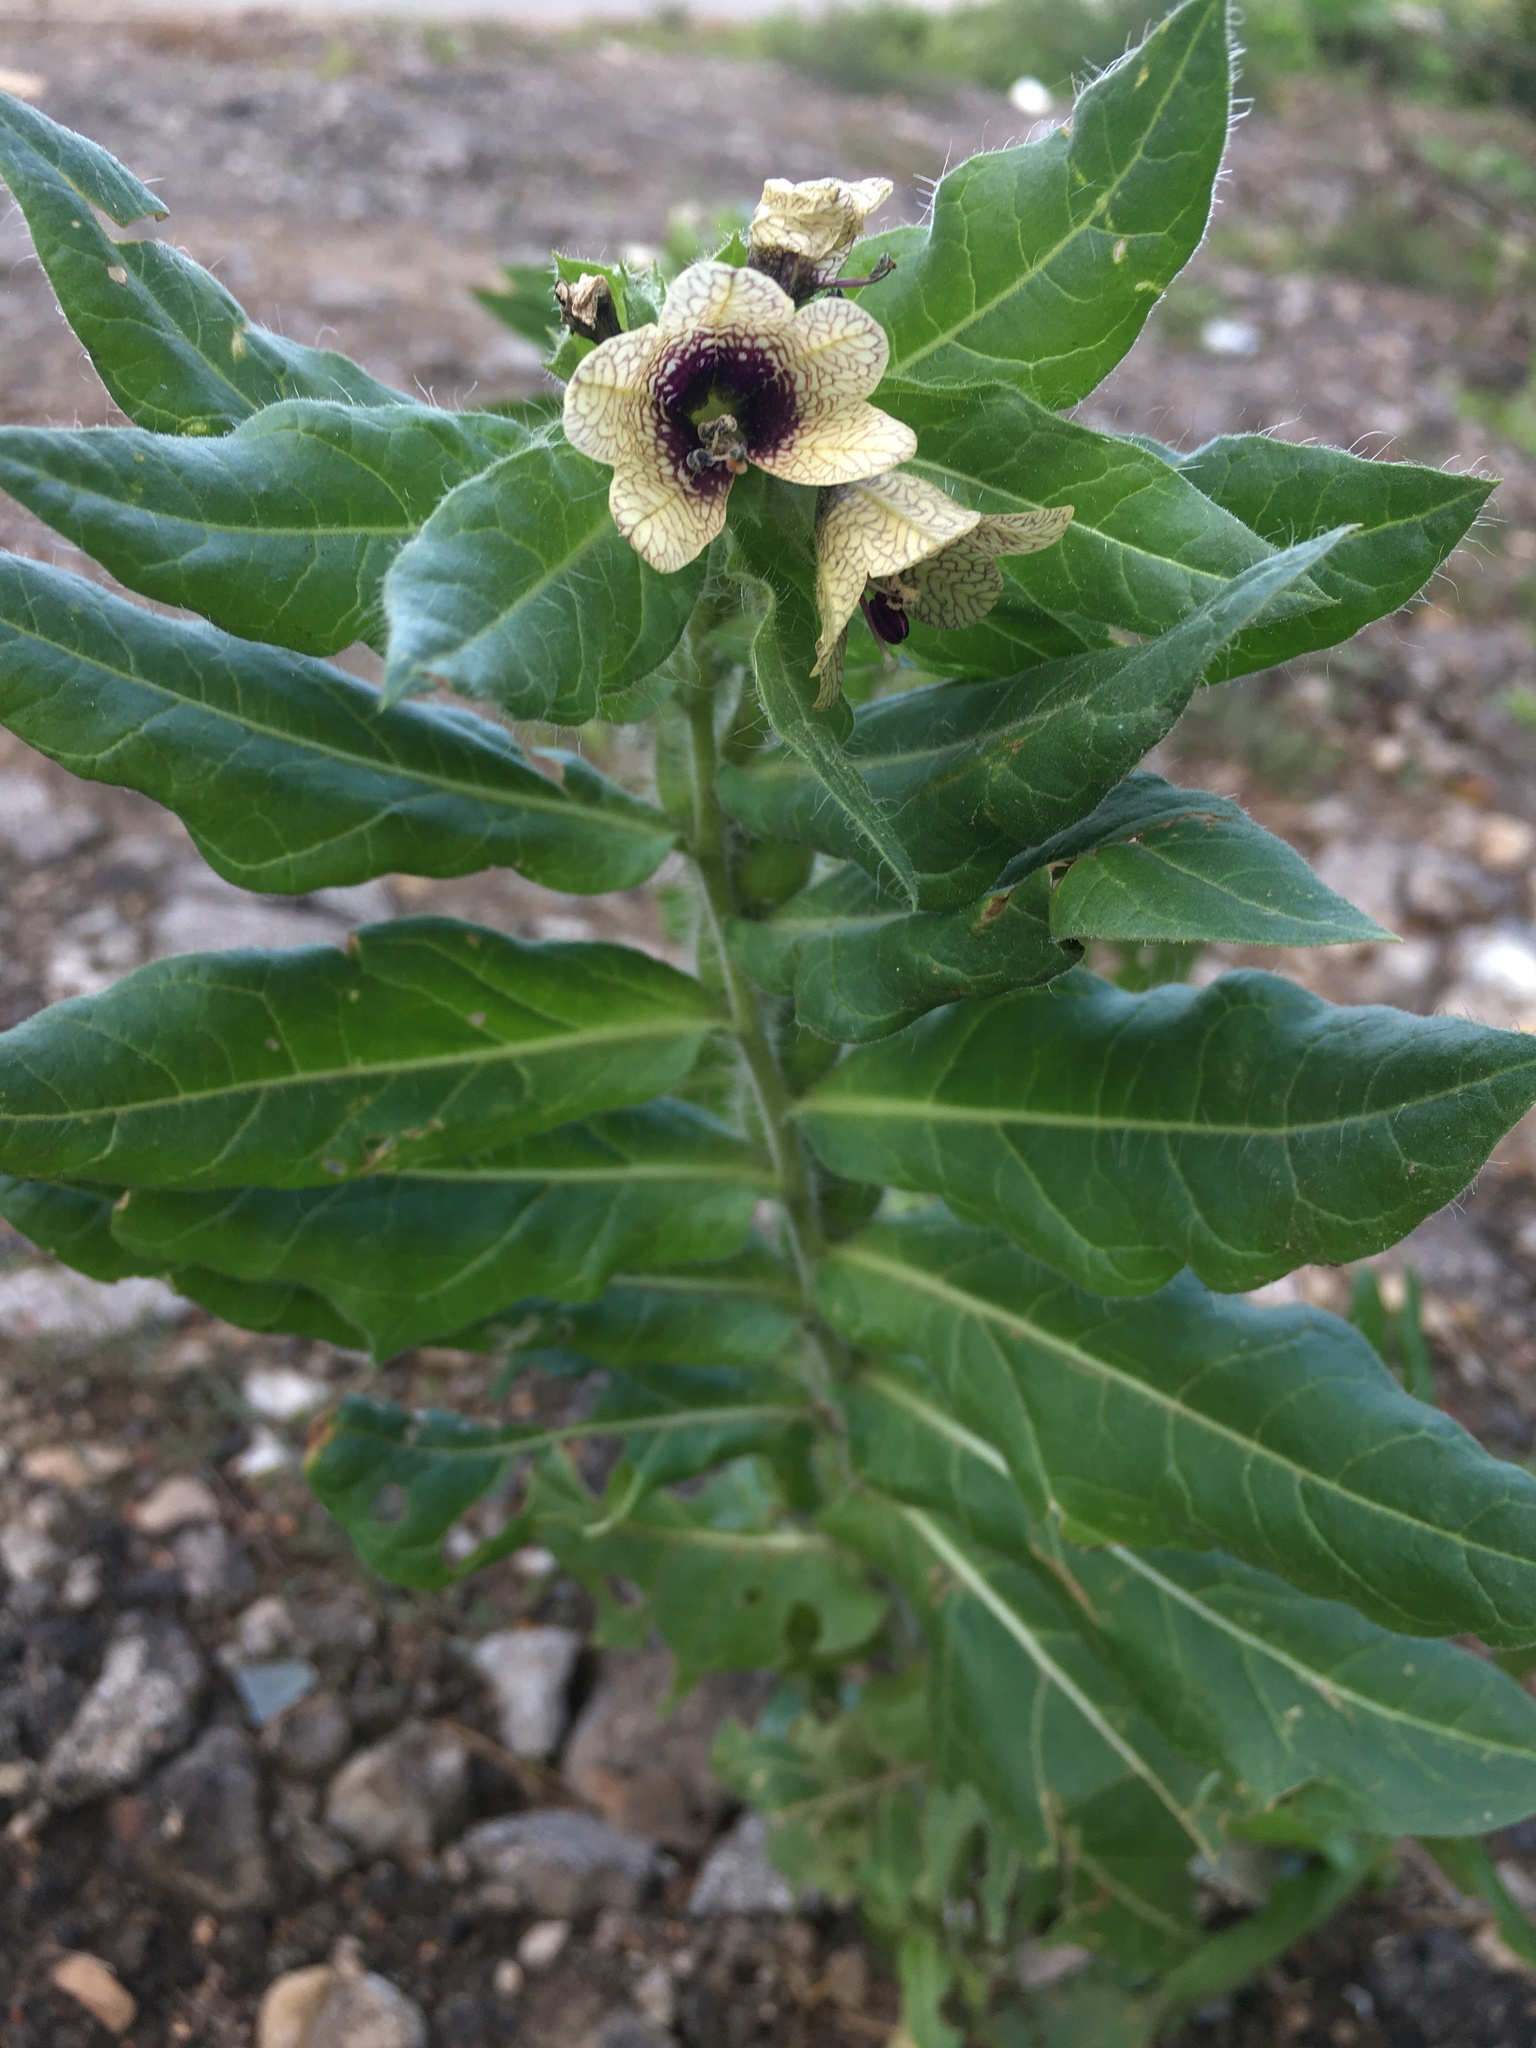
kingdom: Plantae
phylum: Tracheophyta
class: Magnoliopsida
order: Solanales
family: Solanaceae
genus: Hyoscyamus
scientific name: Hyoscyamus niger
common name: Henbane
